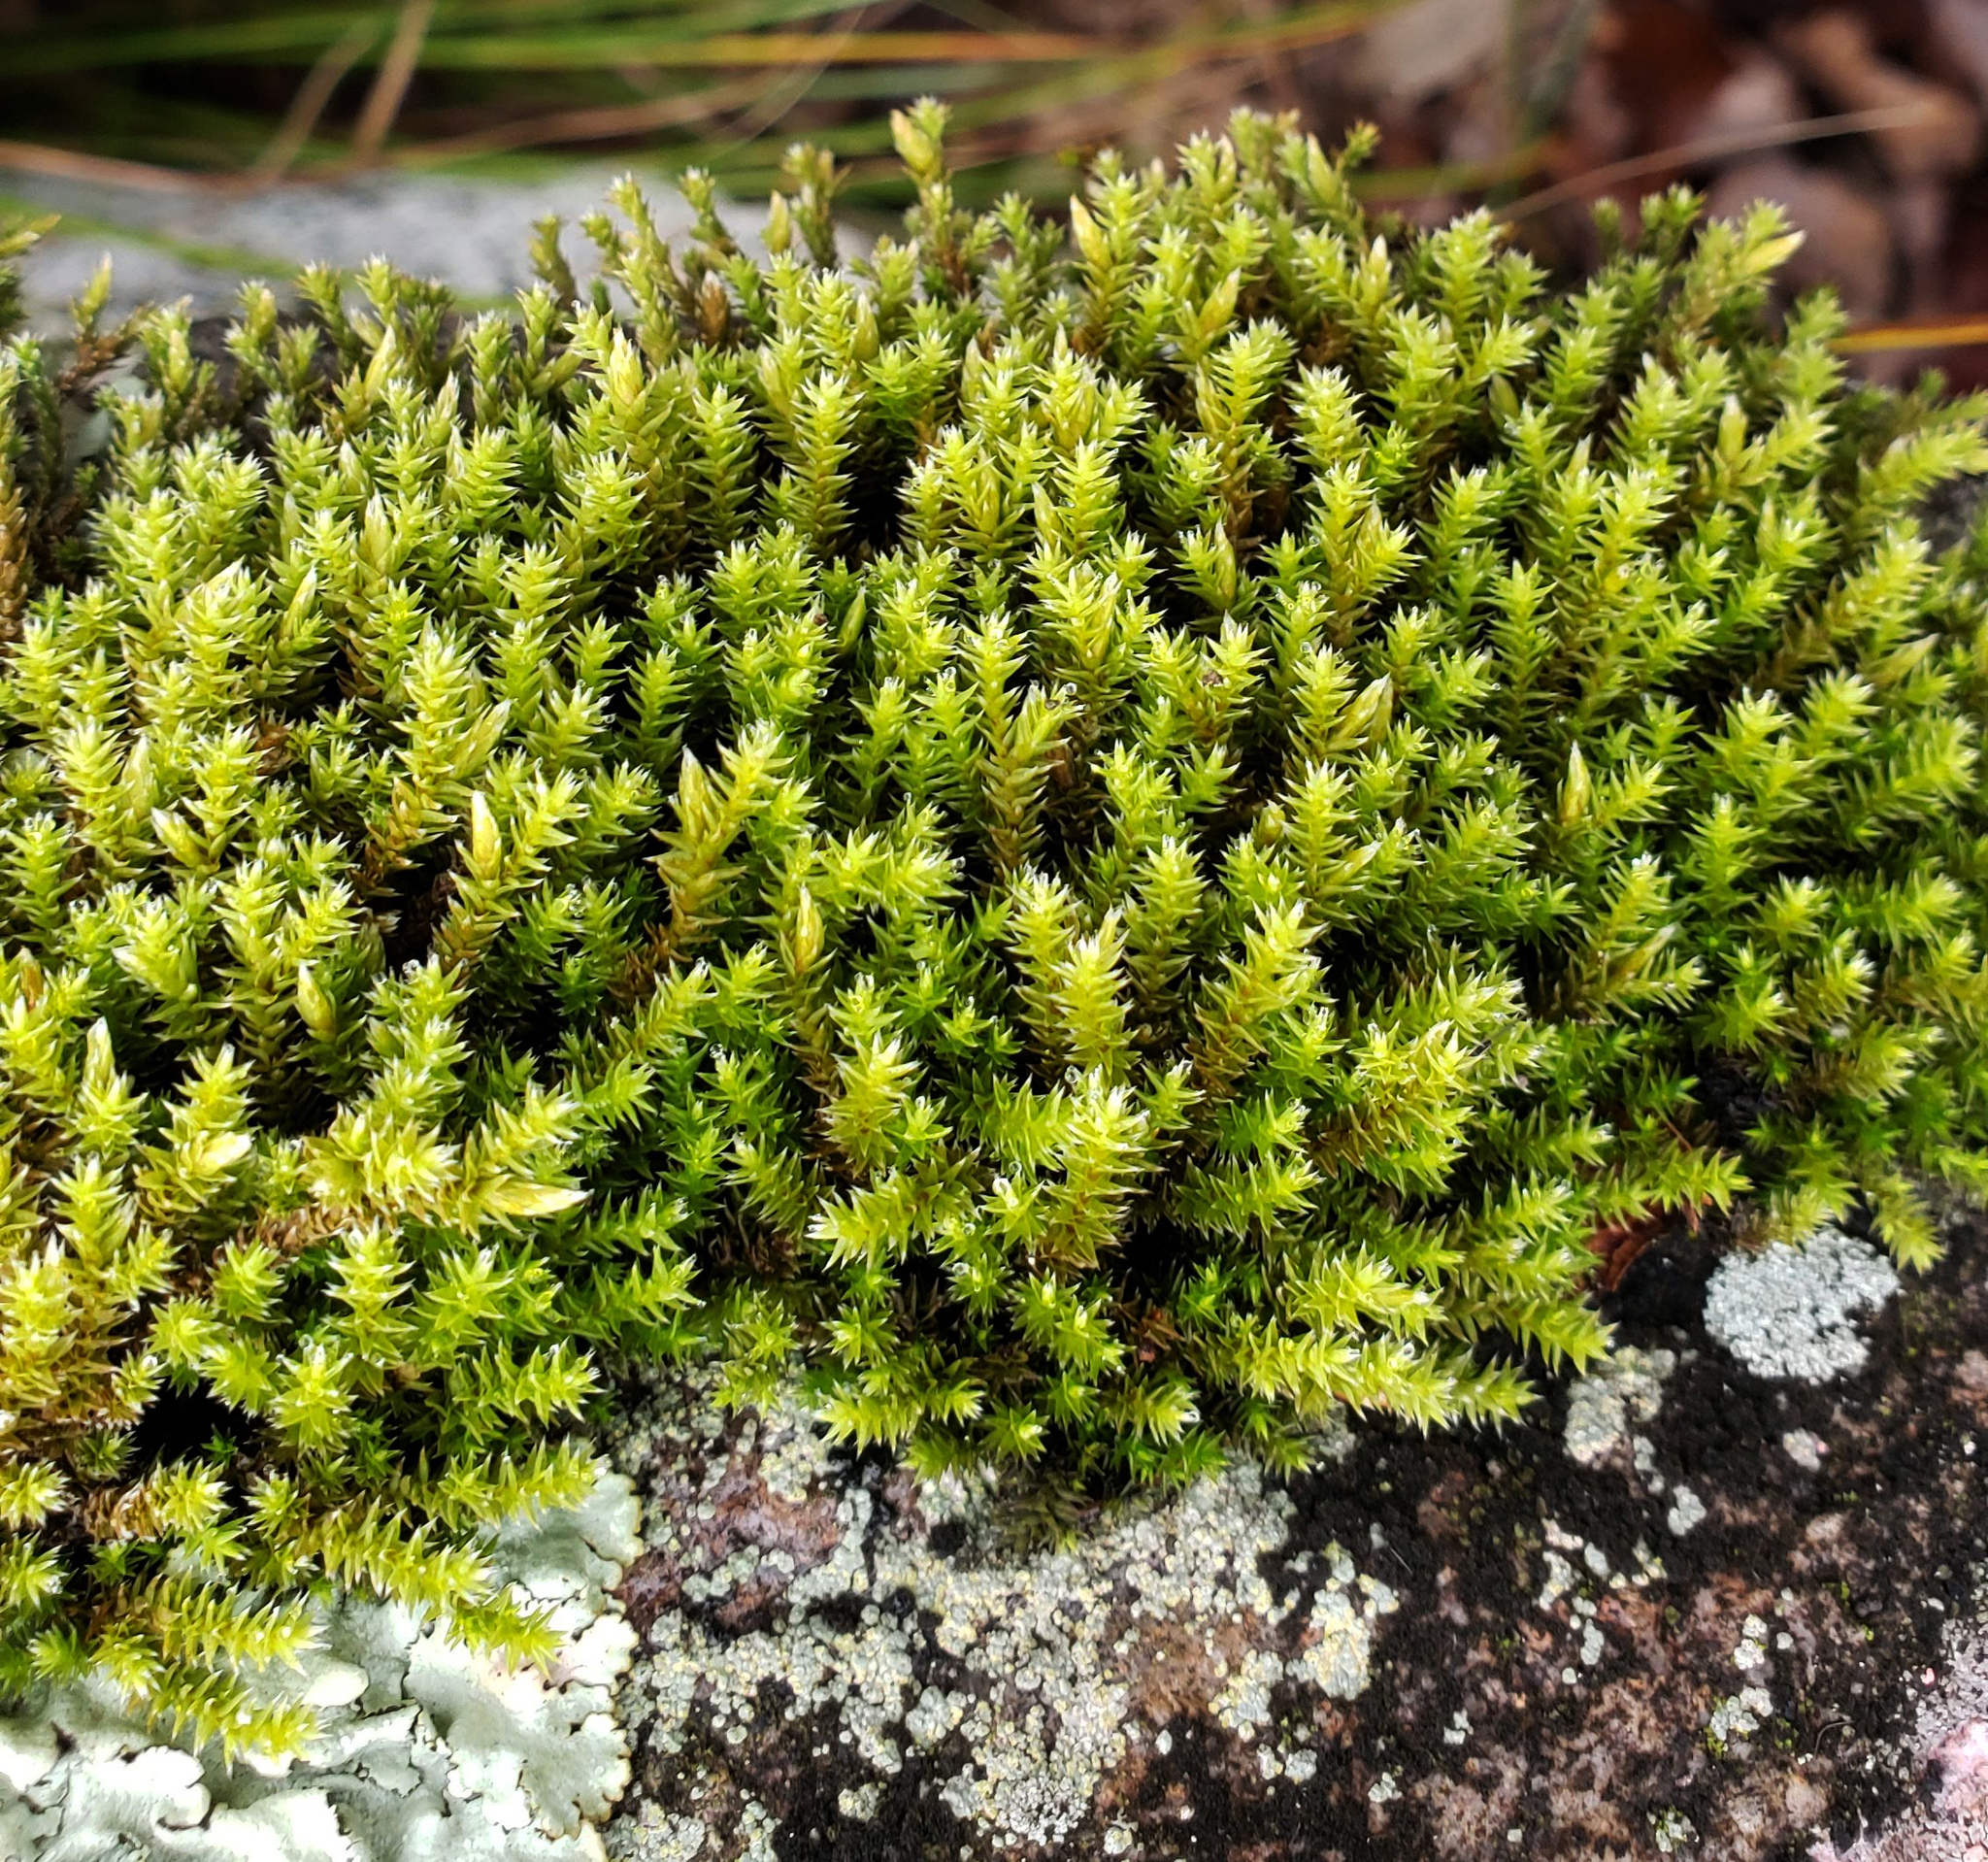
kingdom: Plantae
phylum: Bryophyta
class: Bryopsida
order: Hedwigiales
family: Hedwigiaceae
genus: Hedwigia
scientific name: Hedwigia ciliata
